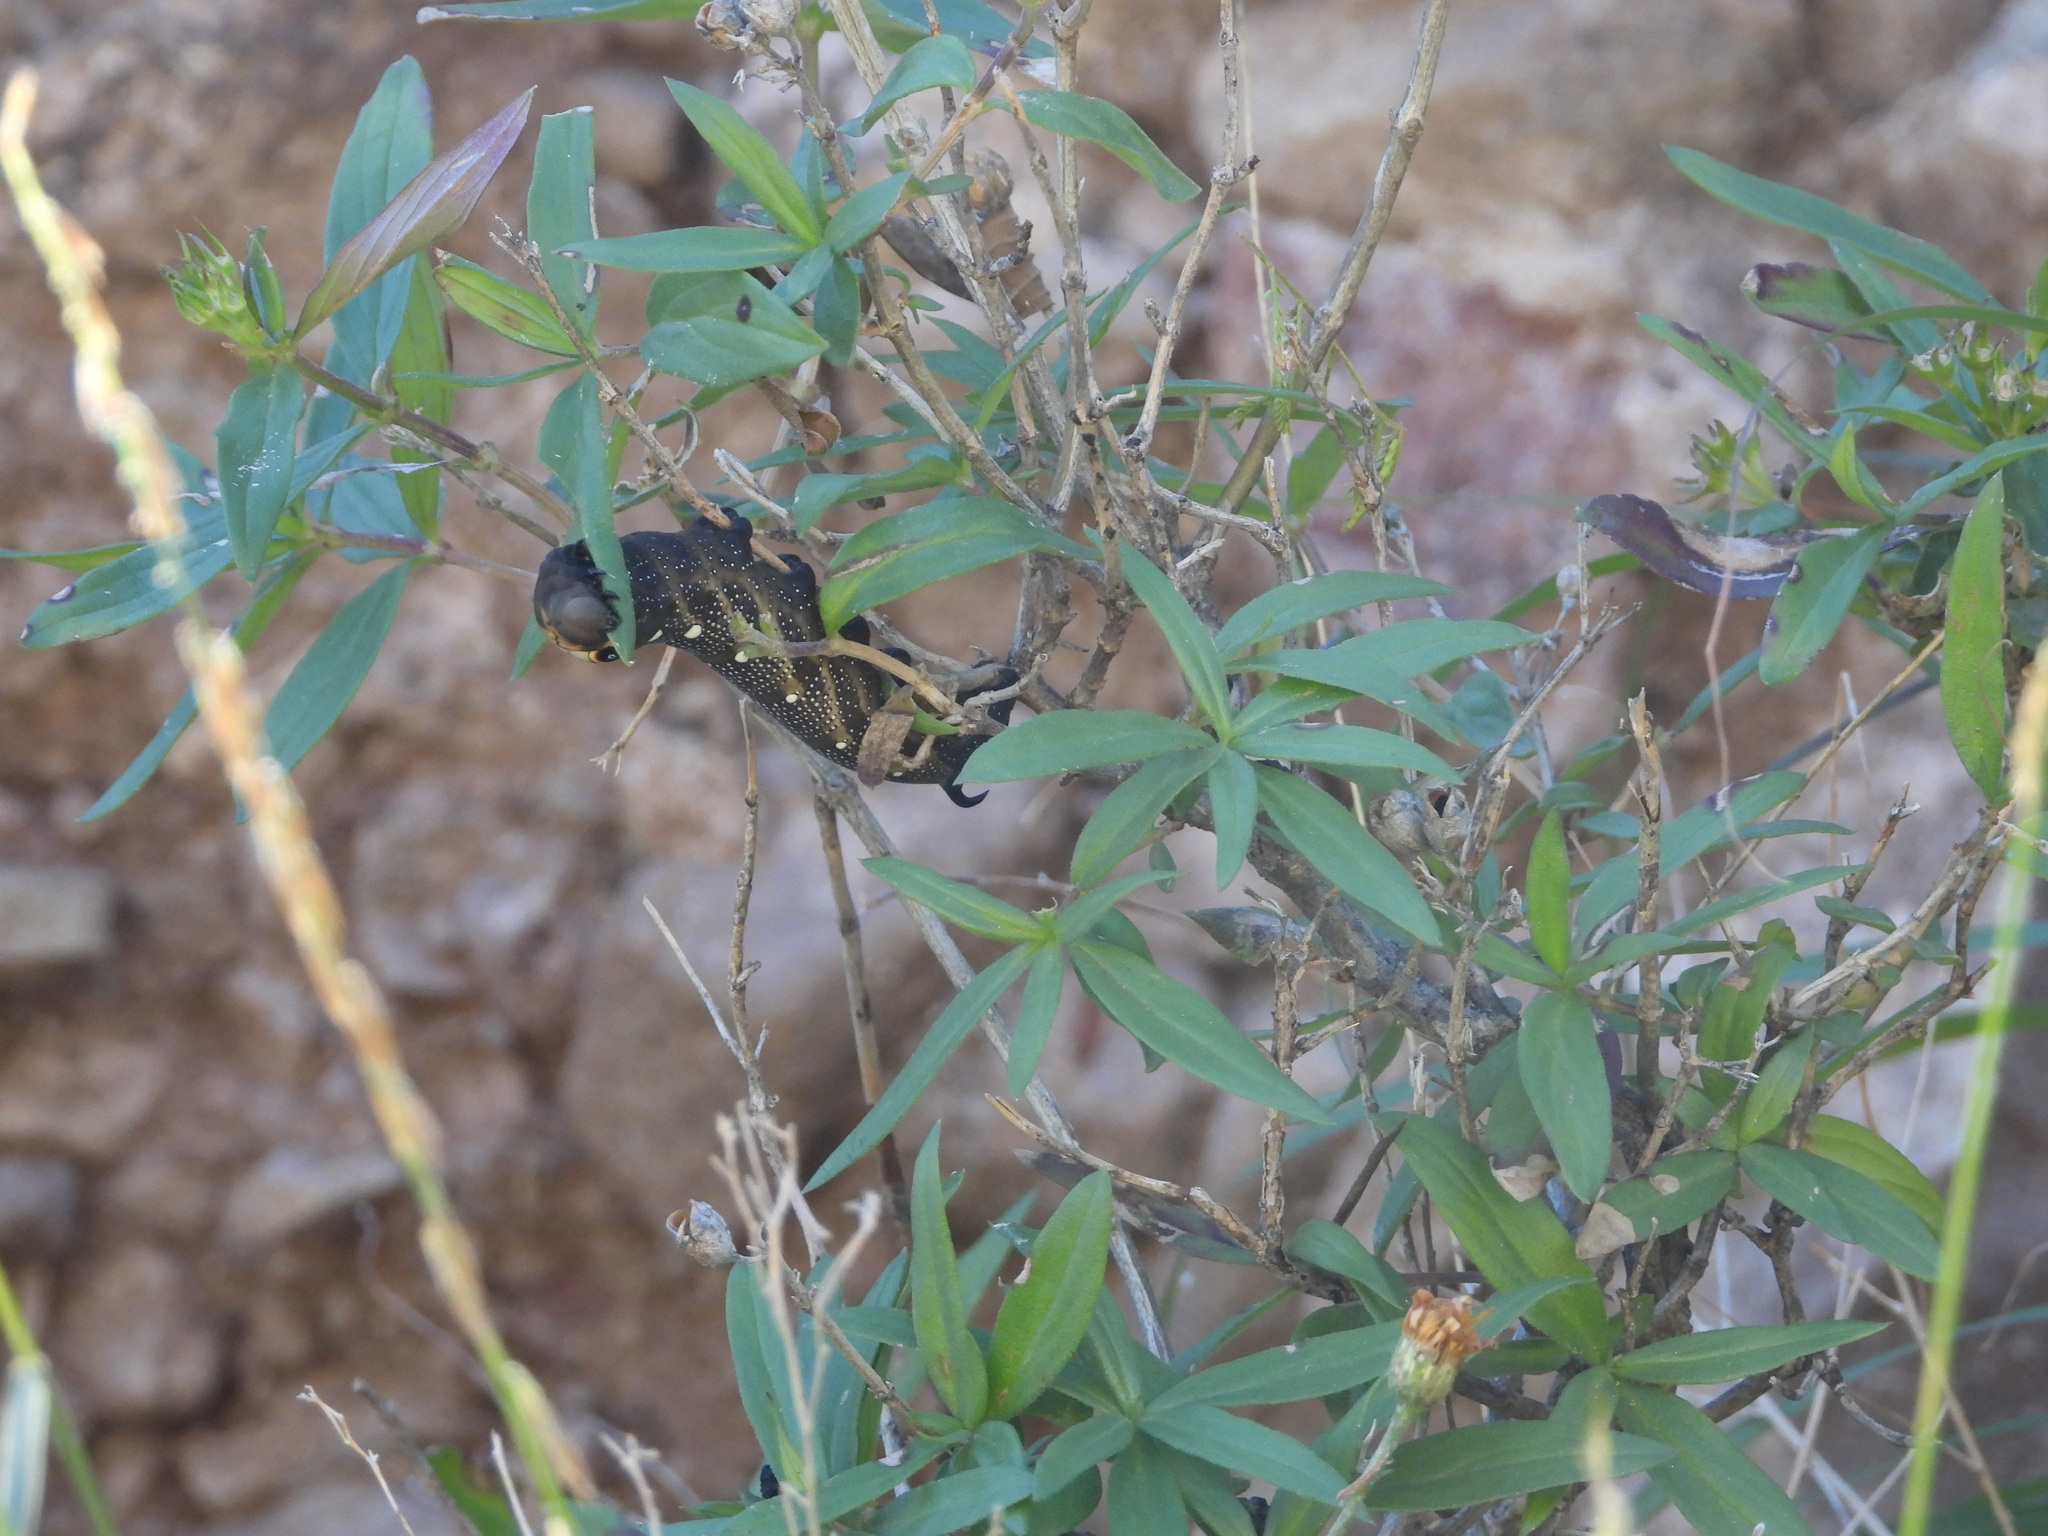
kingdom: Animalia
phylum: Arthropoda
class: Insecta
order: Lepidoptera
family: Sphingidae
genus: Xylophanes
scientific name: Xylophanes falco
